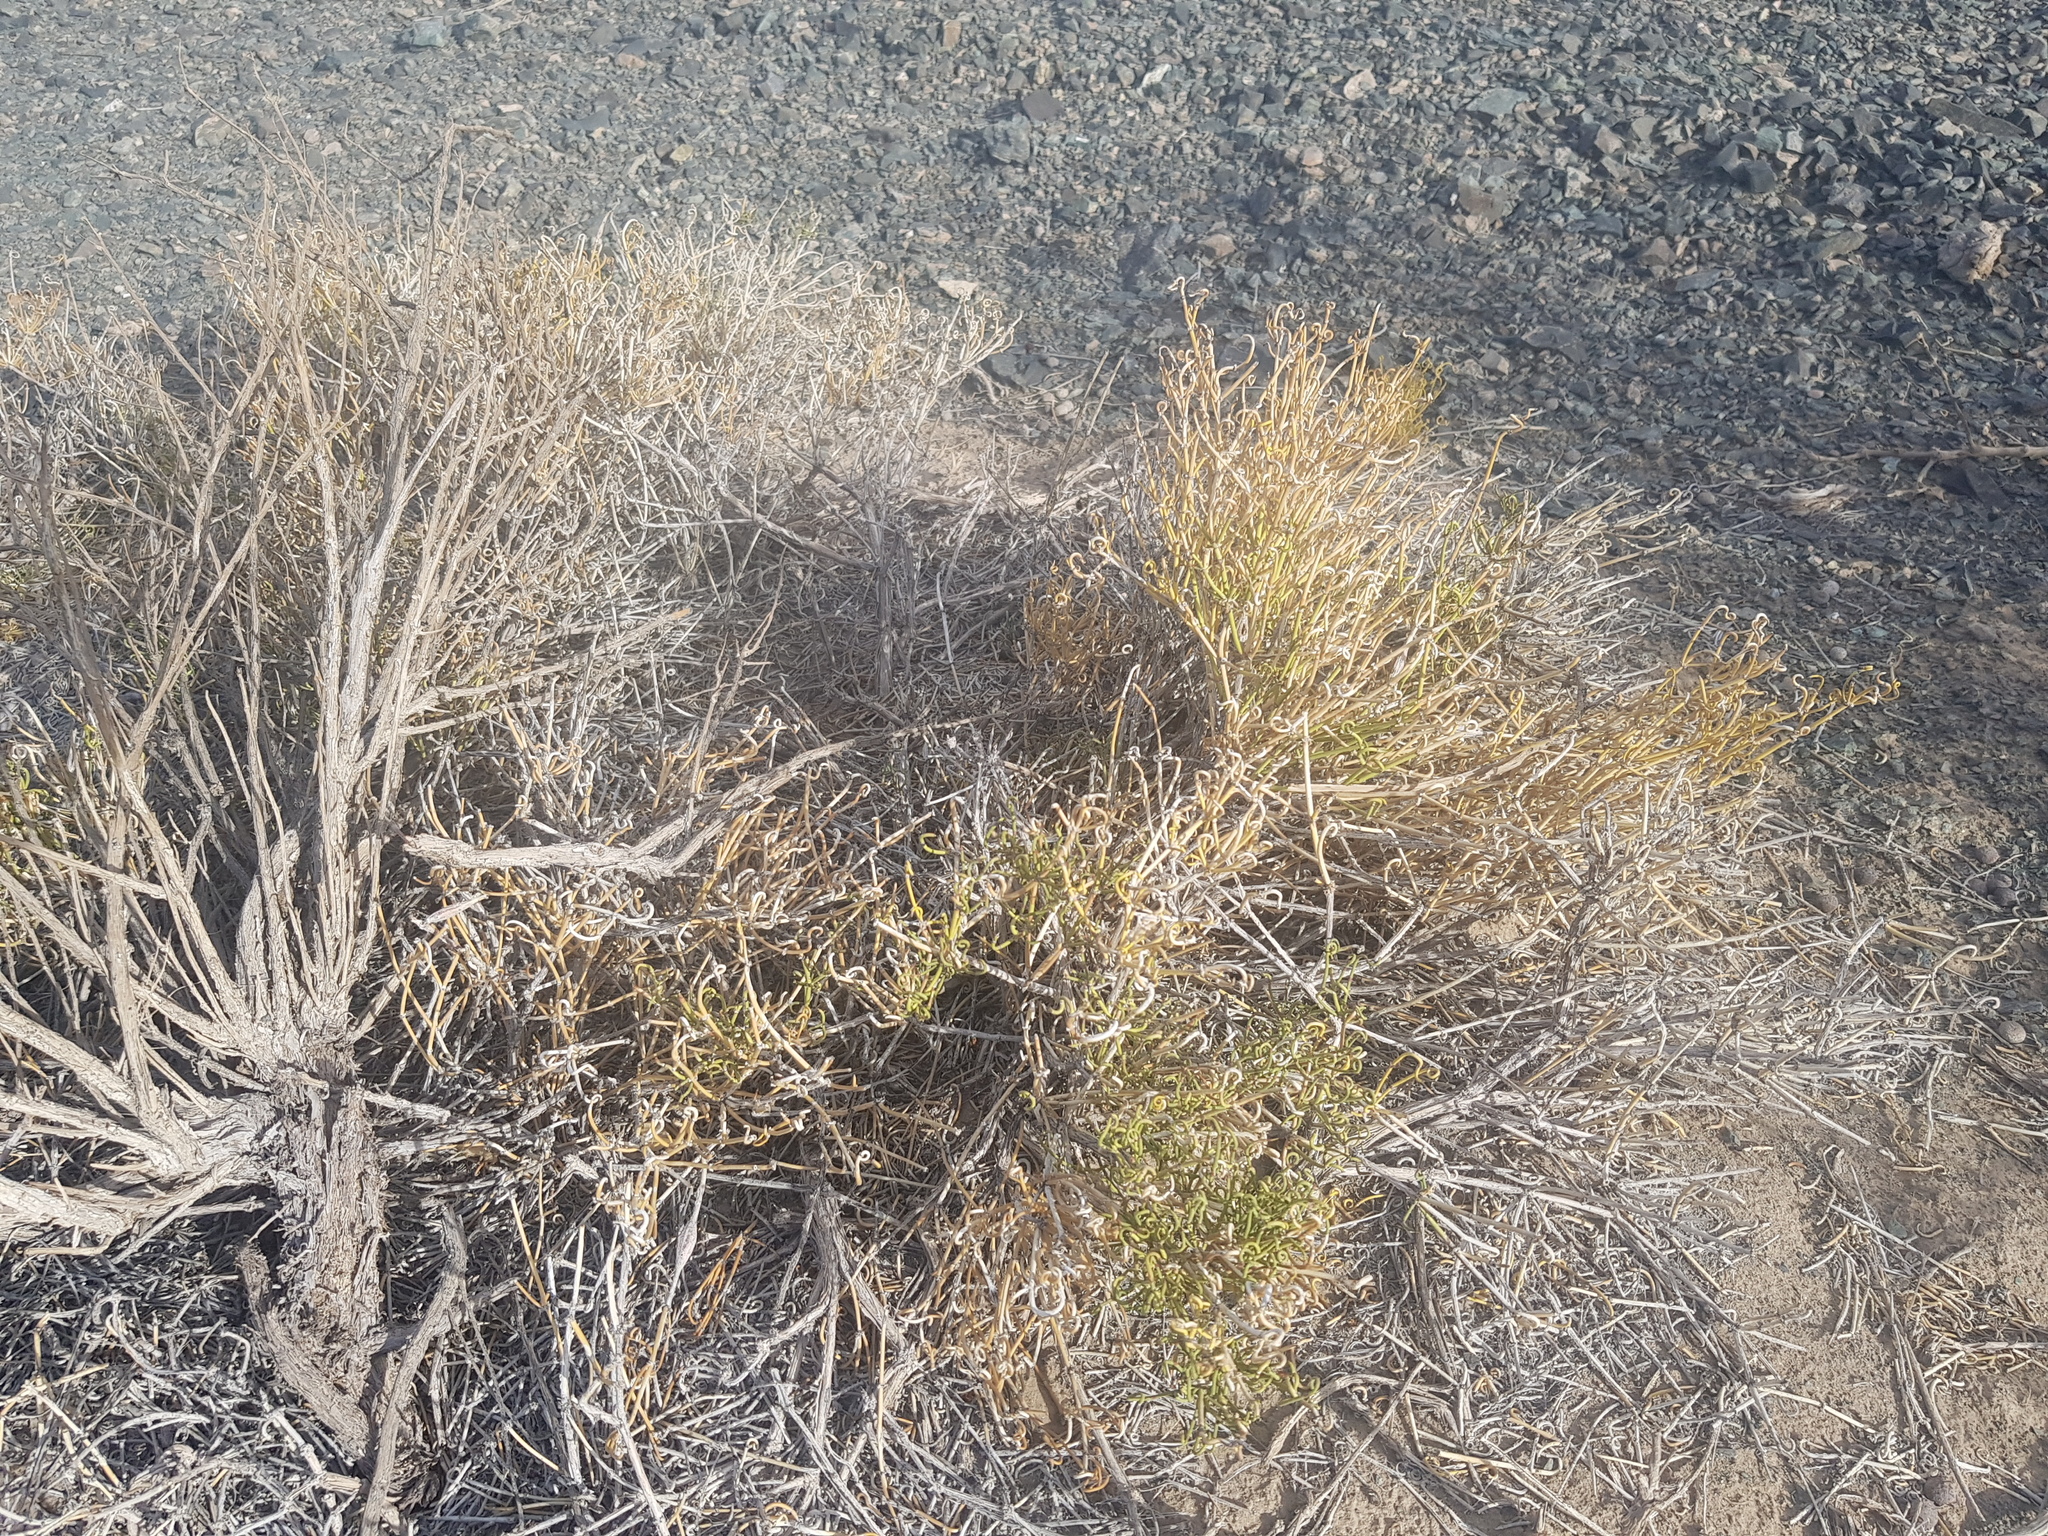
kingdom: Plantae
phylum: Tracheophyta
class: Gnetopsida
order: Ephedrales
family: Ephedraceae
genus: Ephedra
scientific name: Ephedra przewalskii
